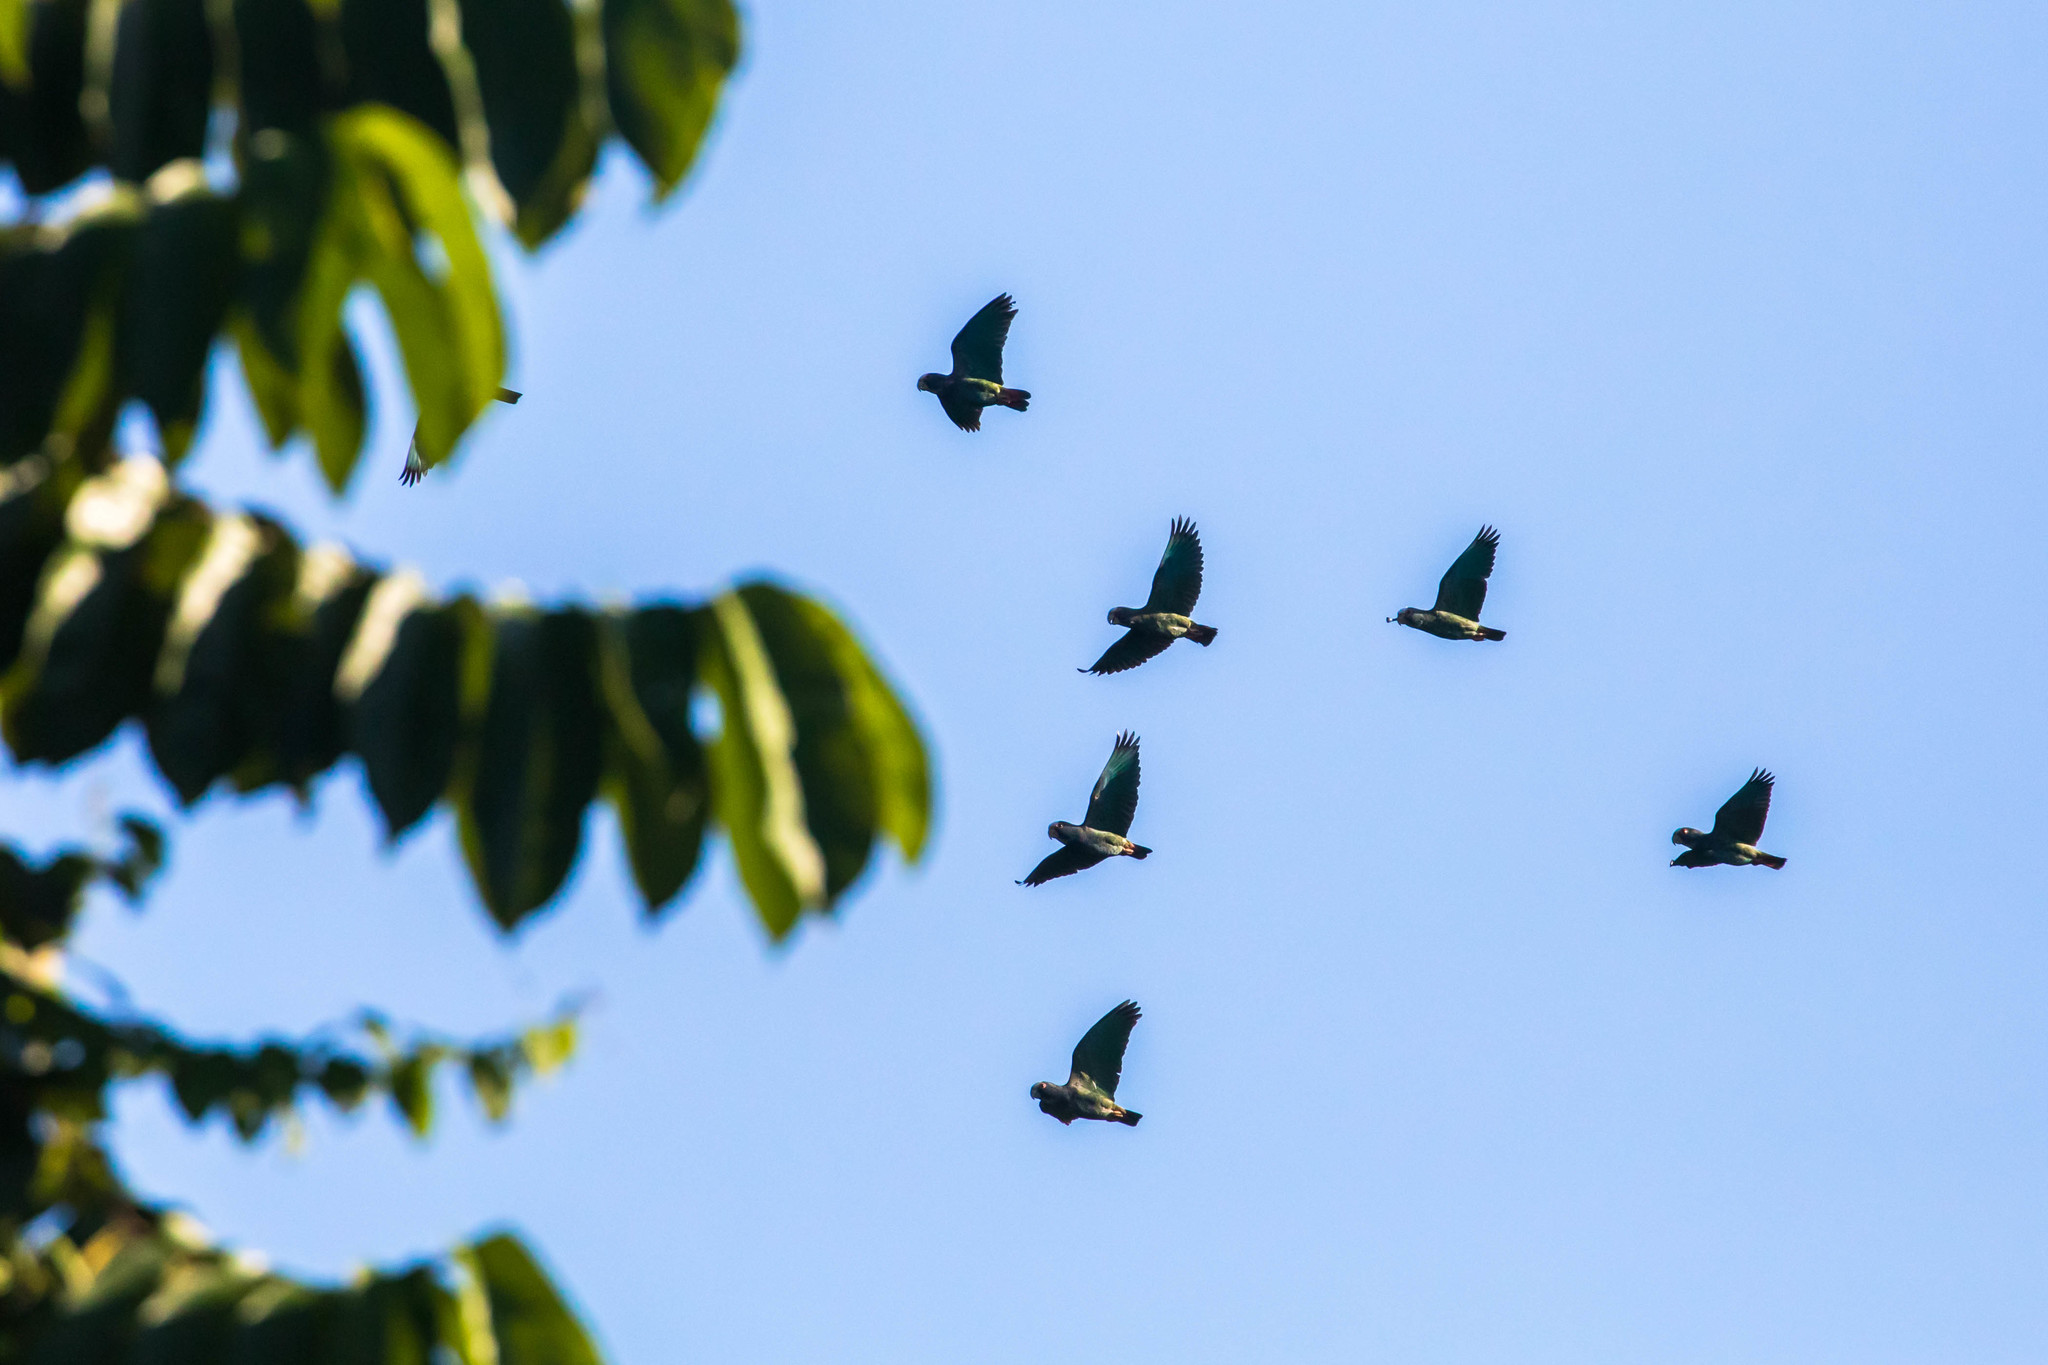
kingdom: Animalia
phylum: Chordata
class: Aves
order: Psittaciformes
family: Psittacidae
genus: Pionus
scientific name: Pionus senilis
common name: White-crowned parrot
